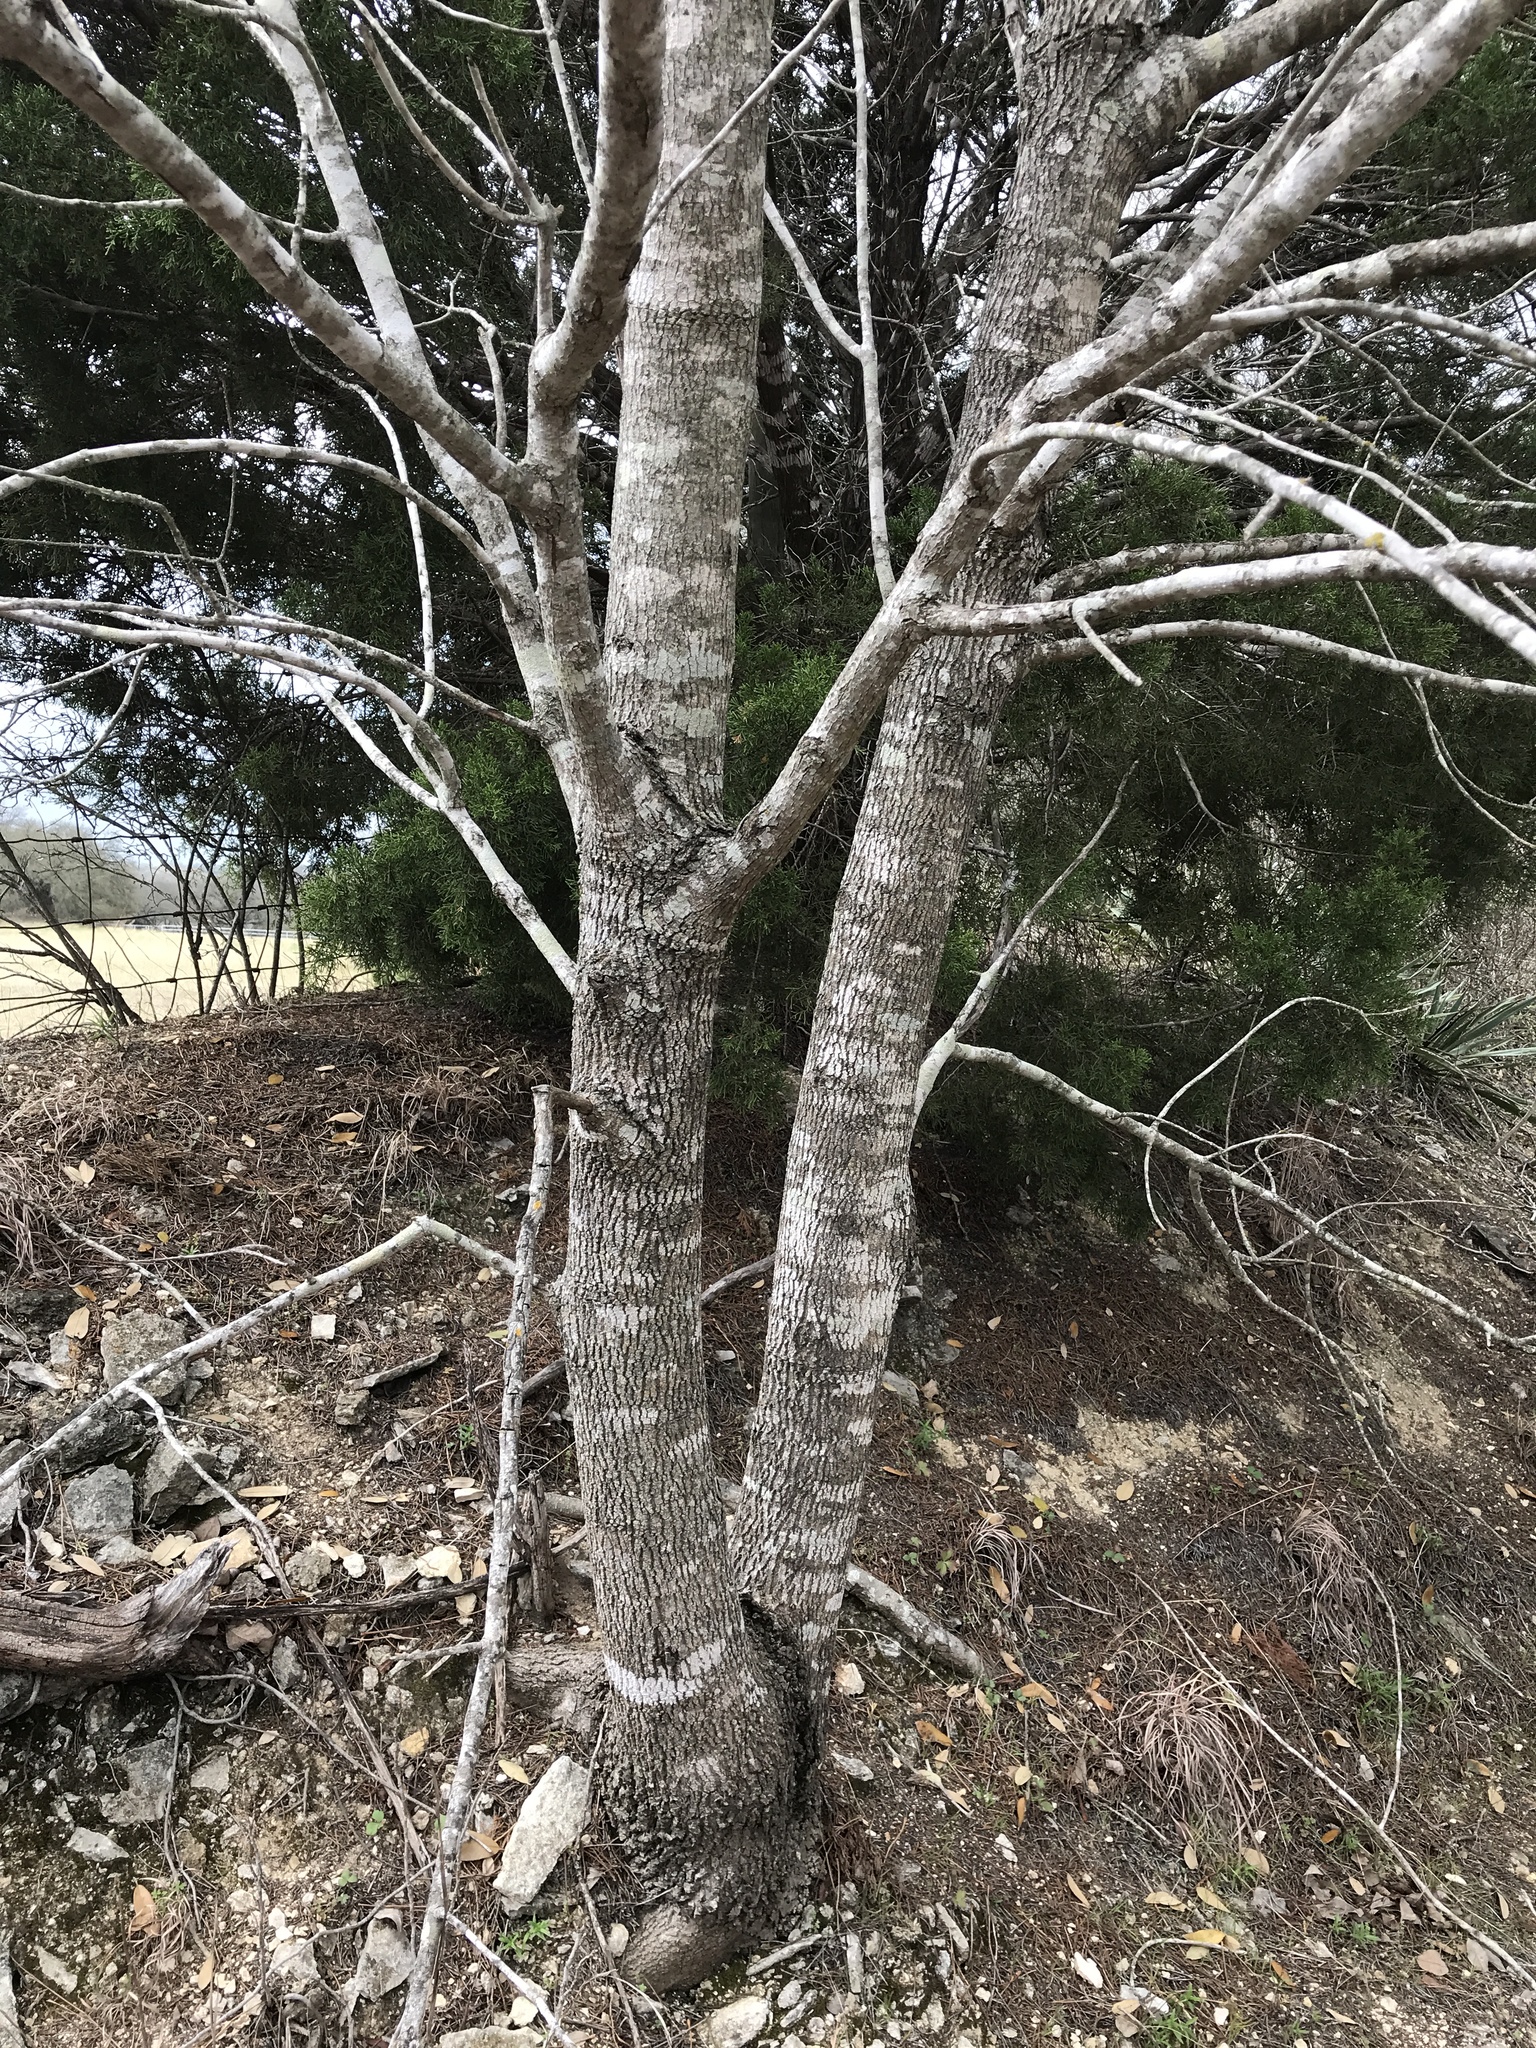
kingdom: Plantae
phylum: Tracheophyta
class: Magnoliopsida
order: Lamiales
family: Oleaceae
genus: Fraxinus
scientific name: Fraxinus albicans
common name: Texas ash
